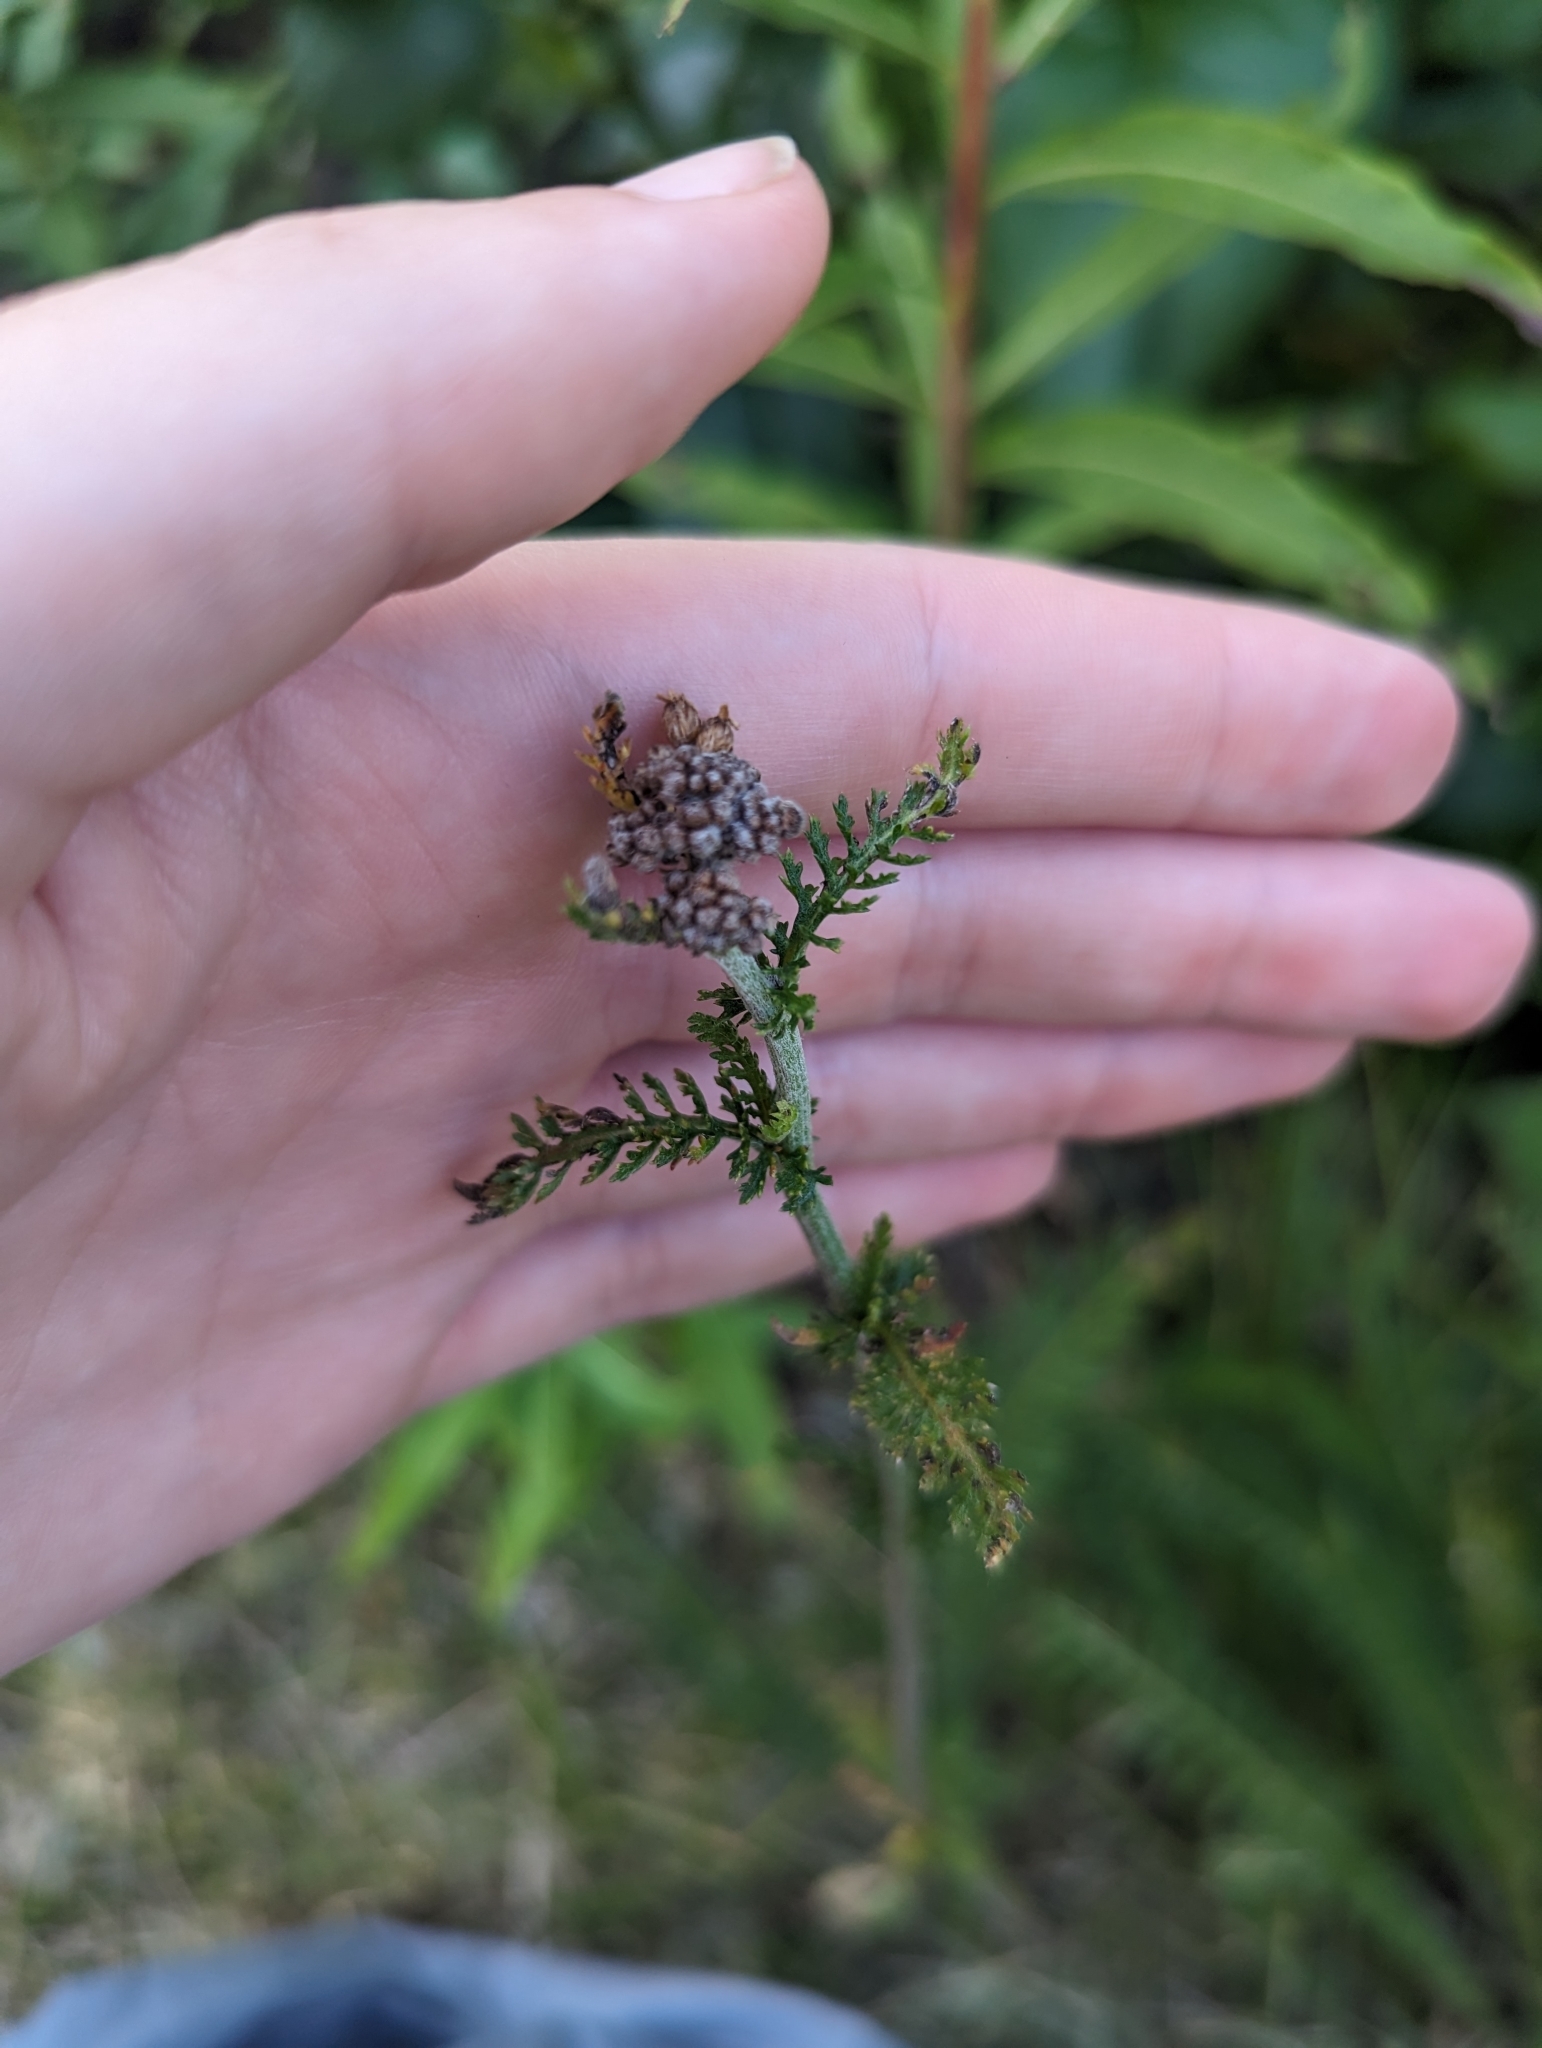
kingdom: Plantae
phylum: Tracheophyta
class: Magnoliopsida
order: Asterales
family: Asteraceae
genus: Achillea
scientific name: Achillea millefolium
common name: Yarrow
